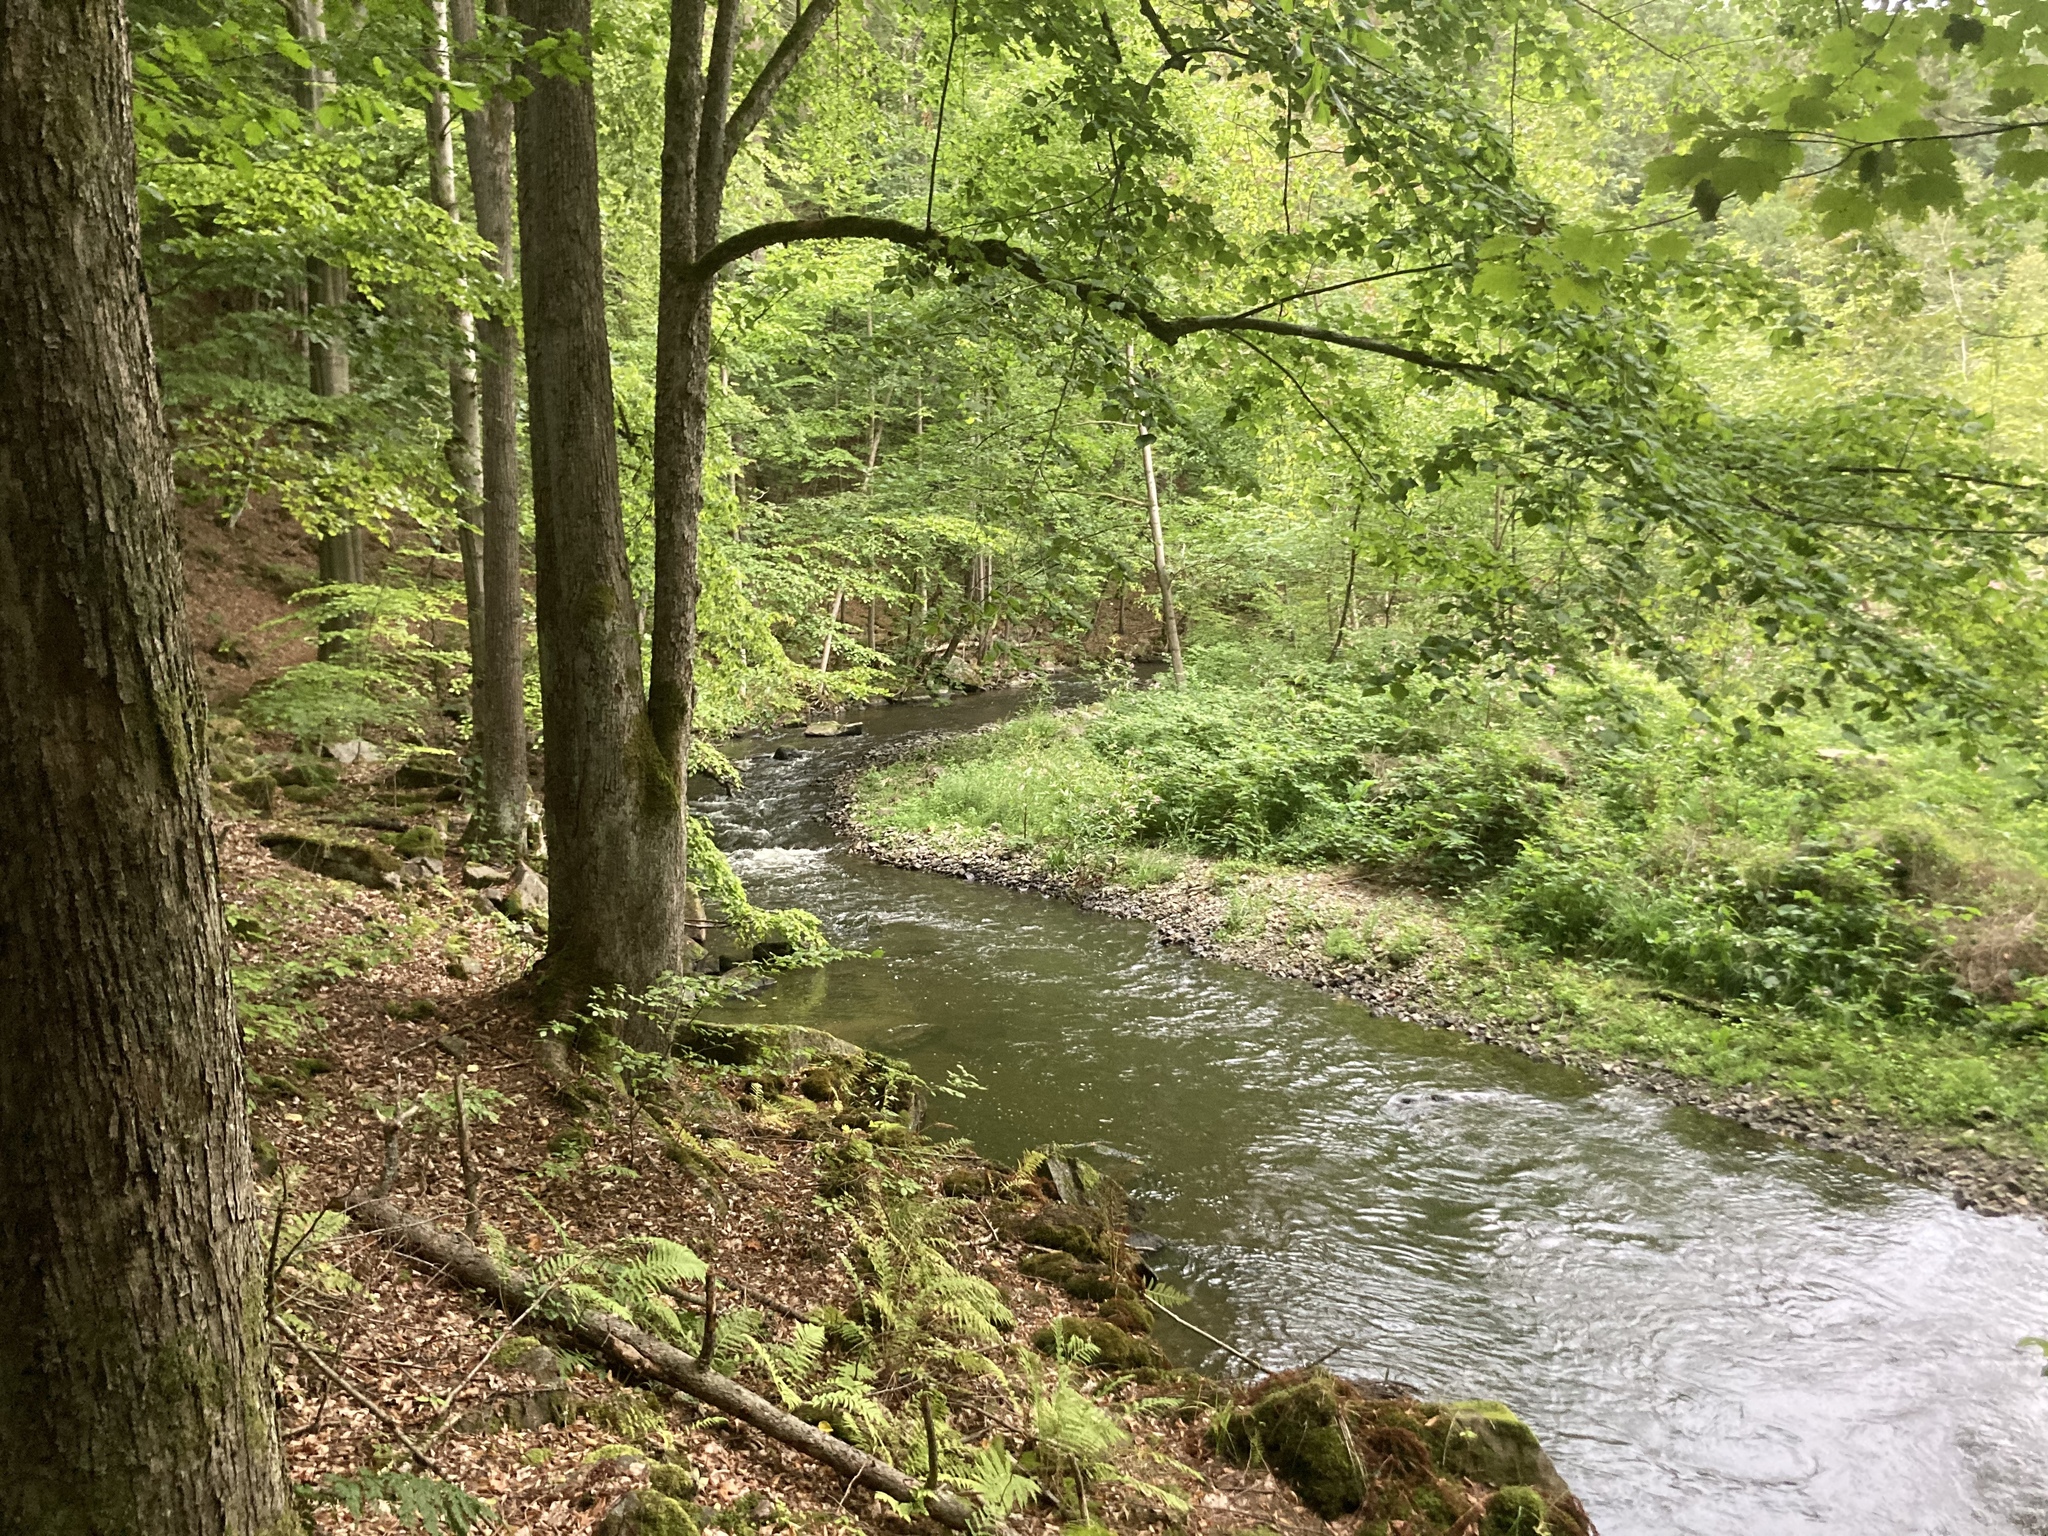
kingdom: Plantae
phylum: Tracheophyta
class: Magnoliopsida
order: Fagales
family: Fagaceae
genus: Fagus
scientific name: Fagus sylvatica
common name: Beech
